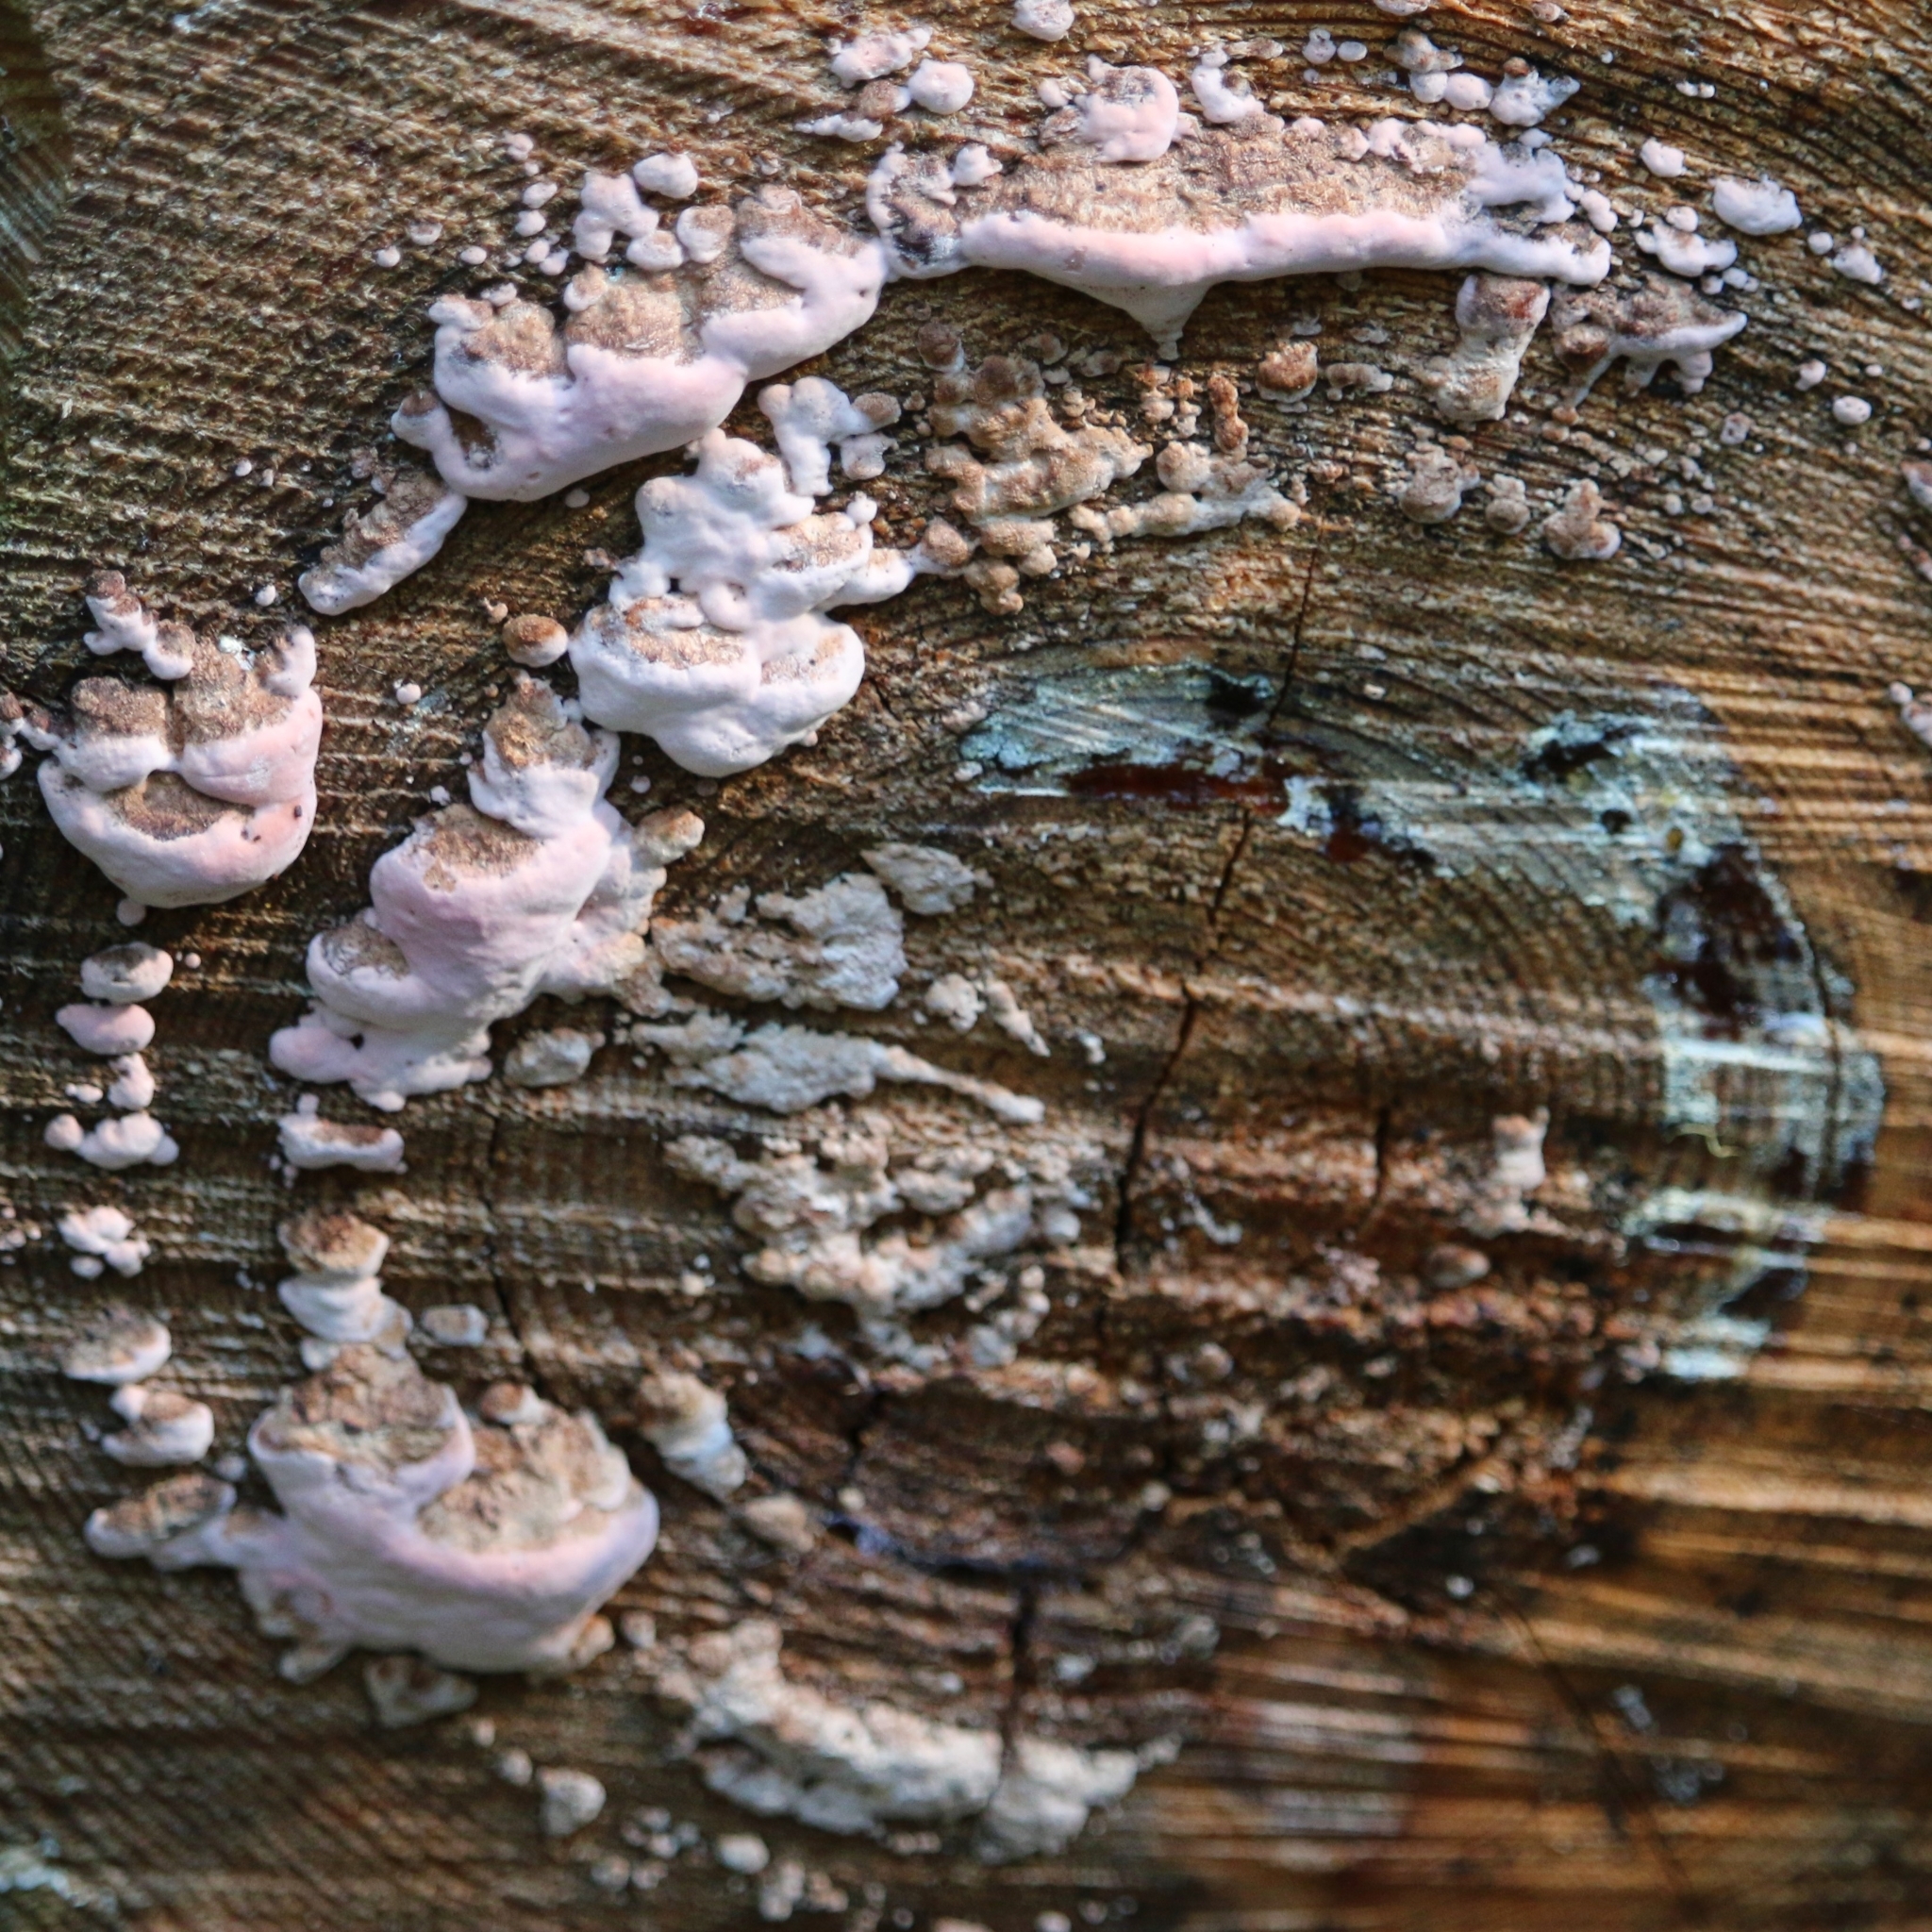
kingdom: Fungi
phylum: Basidiomycota
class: Agaricomycetes
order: Polyporales
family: Fomitopsidaceae
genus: Rhodofomes
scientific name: Rhodofomes cajanderi
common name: Rosy conk
